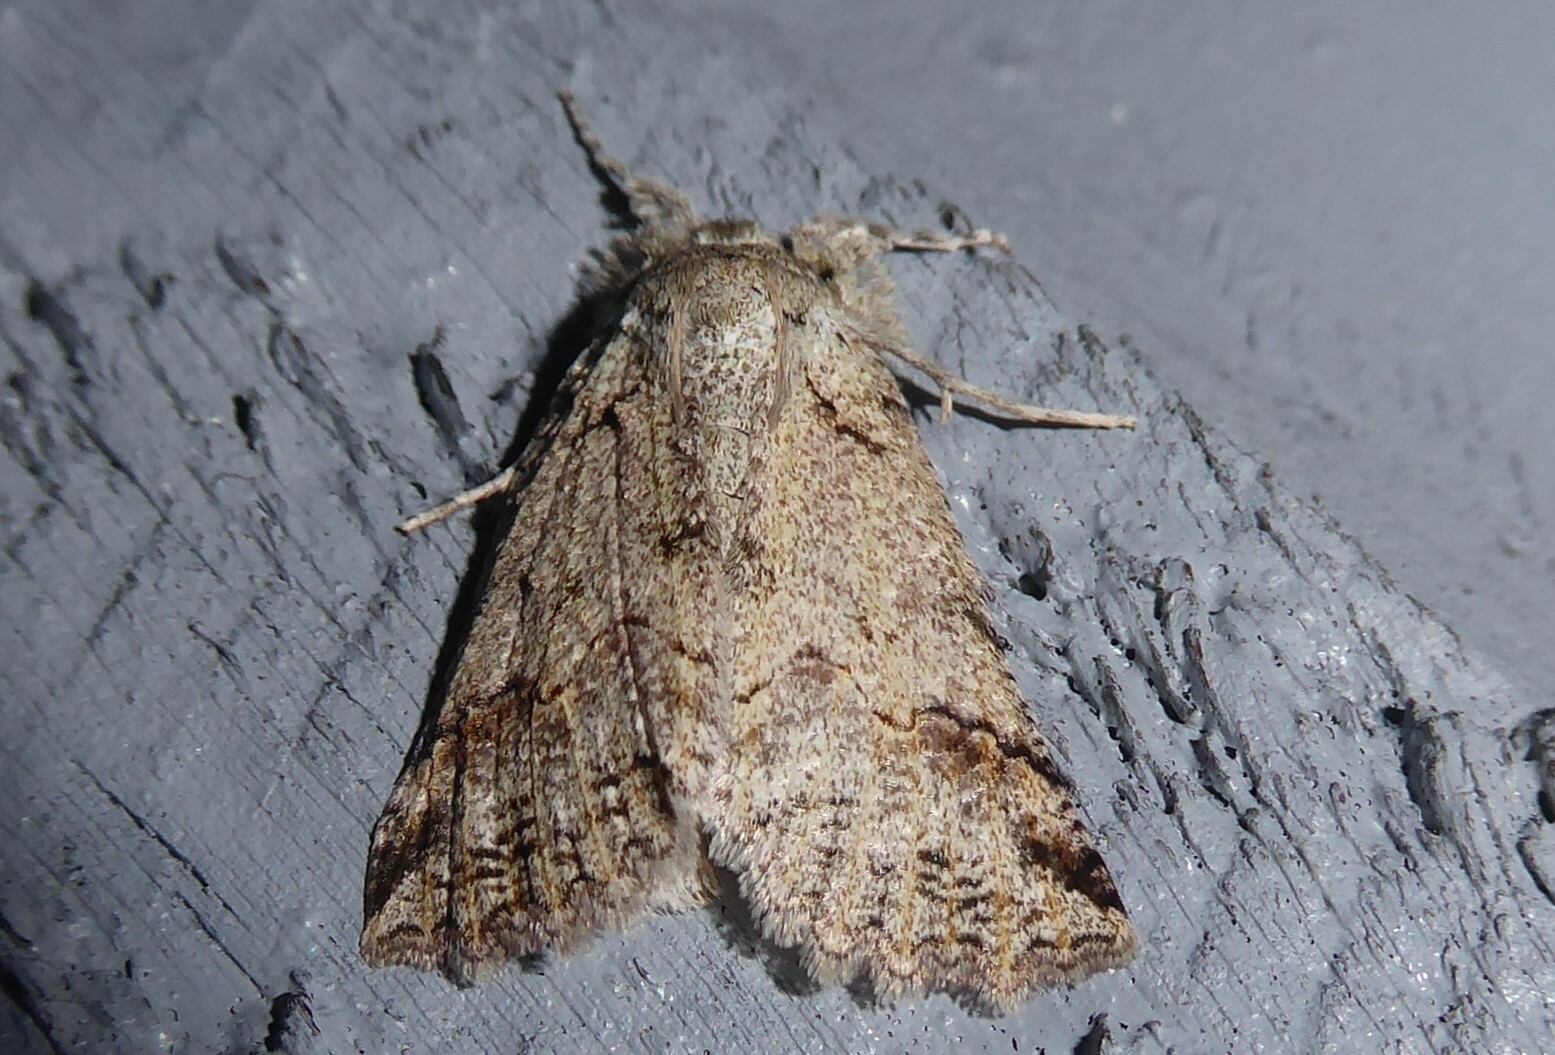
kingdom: Animalia
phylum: Arthropoda
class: Insecta
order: Lepidoptera
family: Geometridae
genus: Declana
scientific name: Declana floccosa
